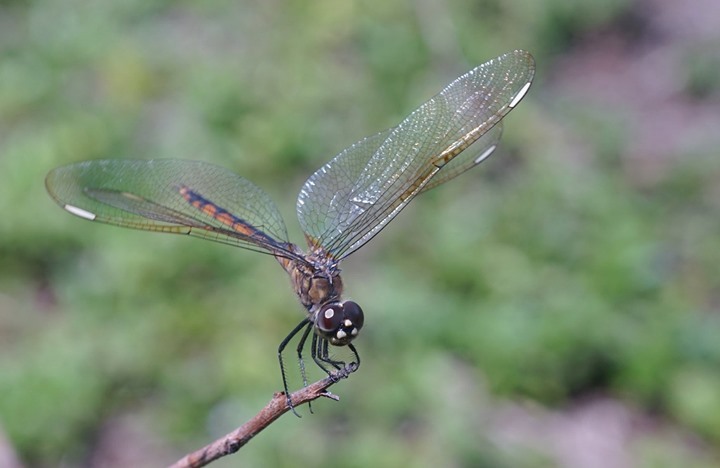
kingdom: Animalia
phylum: Arthropoda
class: Insecta
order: Odonata
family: Libellulidae
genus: Brachymesia
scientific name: Brachymesia gravida
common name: Four-spotted pennant
